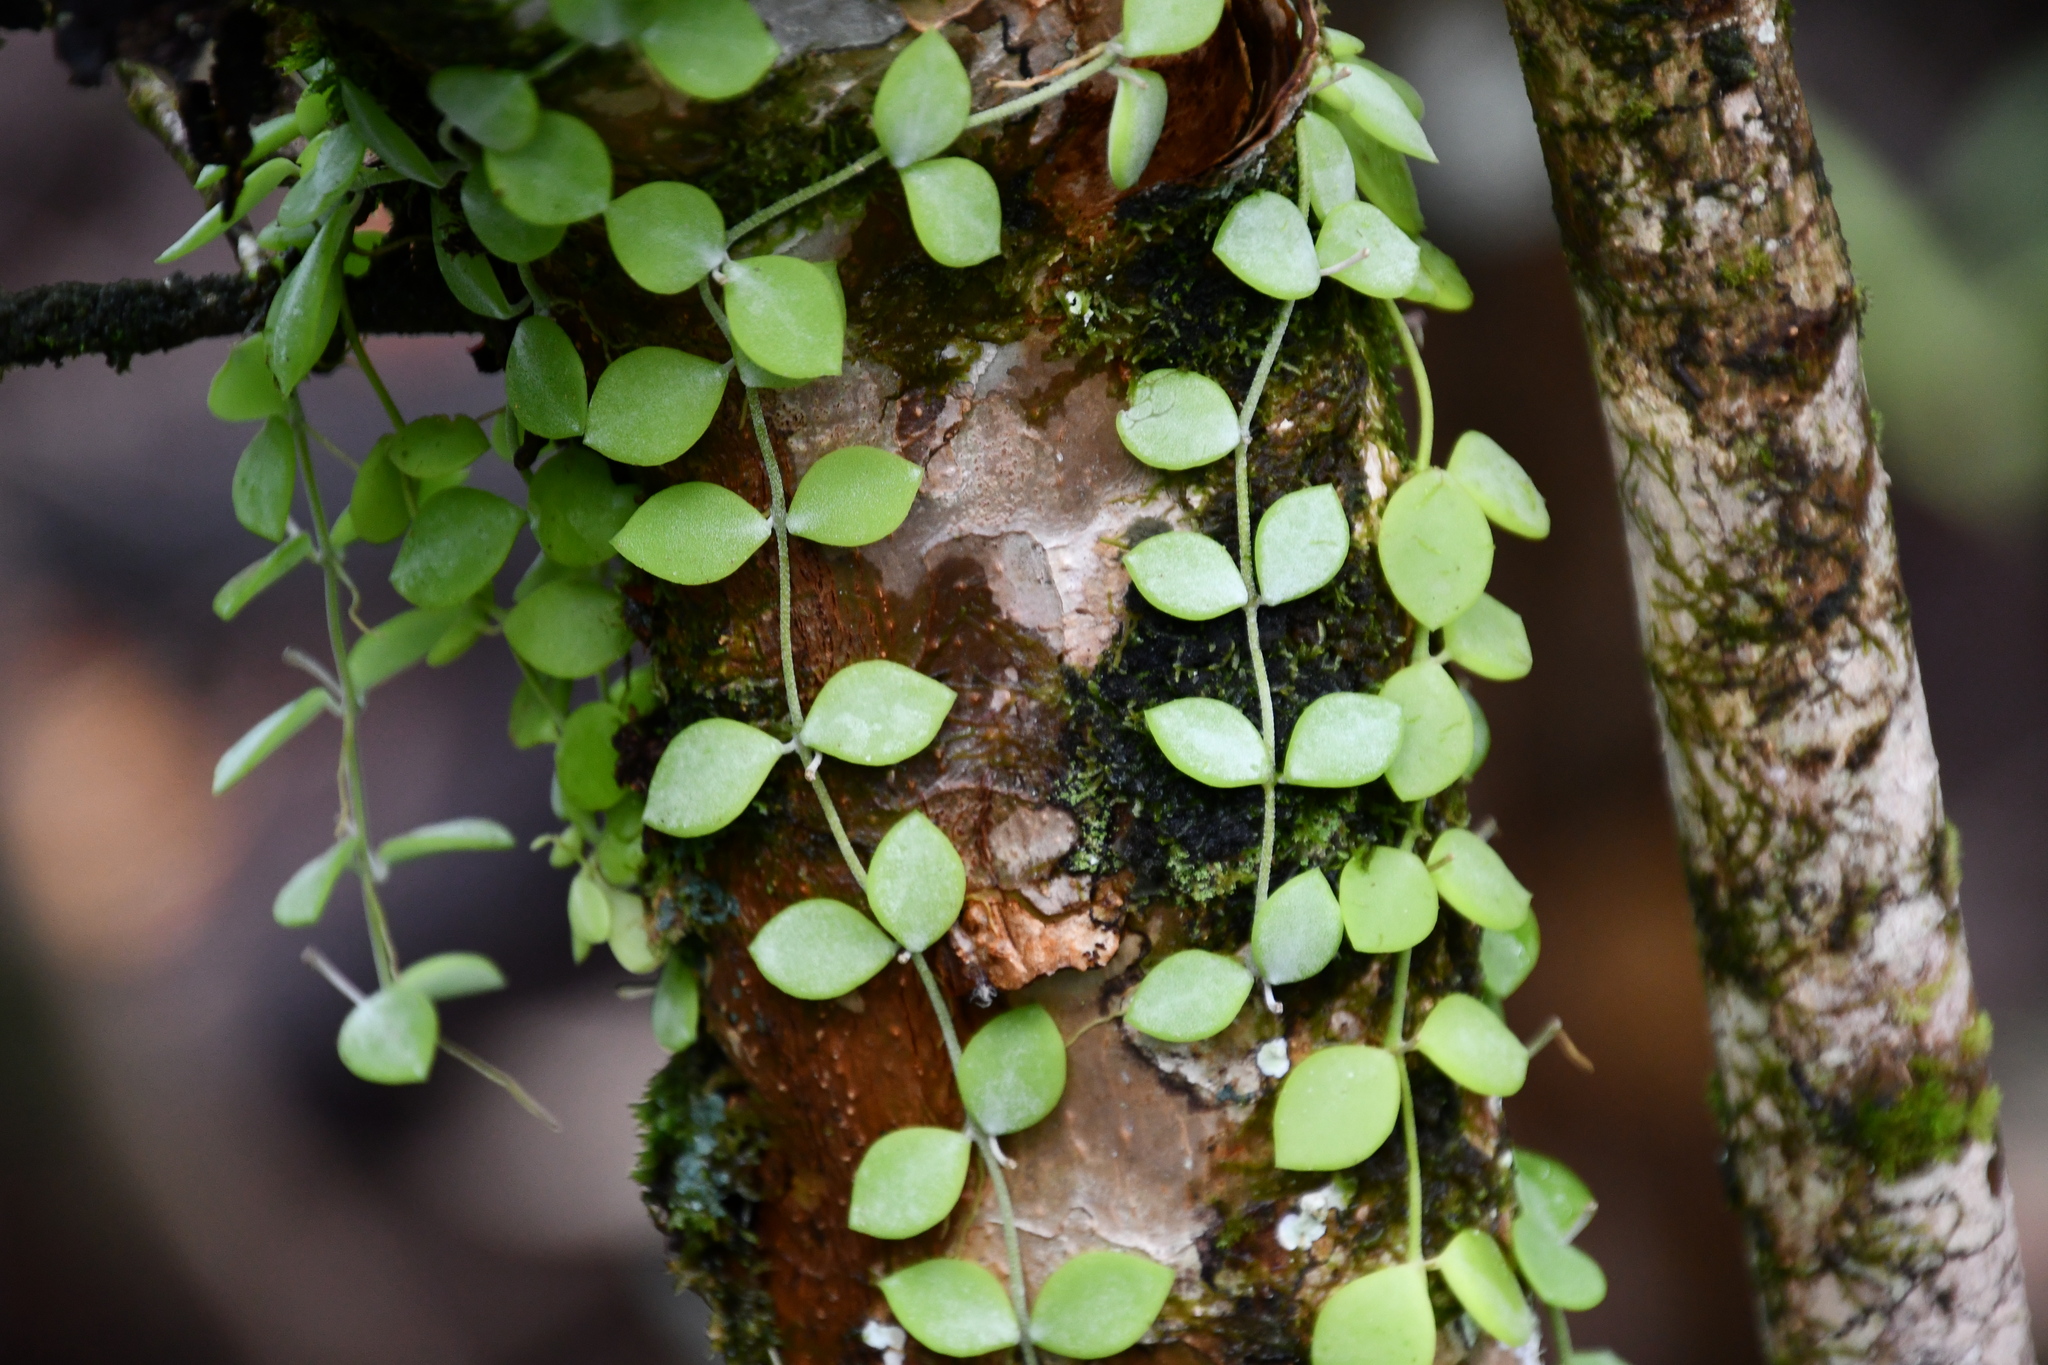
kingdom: Plantae
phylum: Tracheophyta
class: Magnoliopsida
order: Gentianales
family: Apocynaceae
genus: Dischidia
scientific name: Dischidia nummularia
